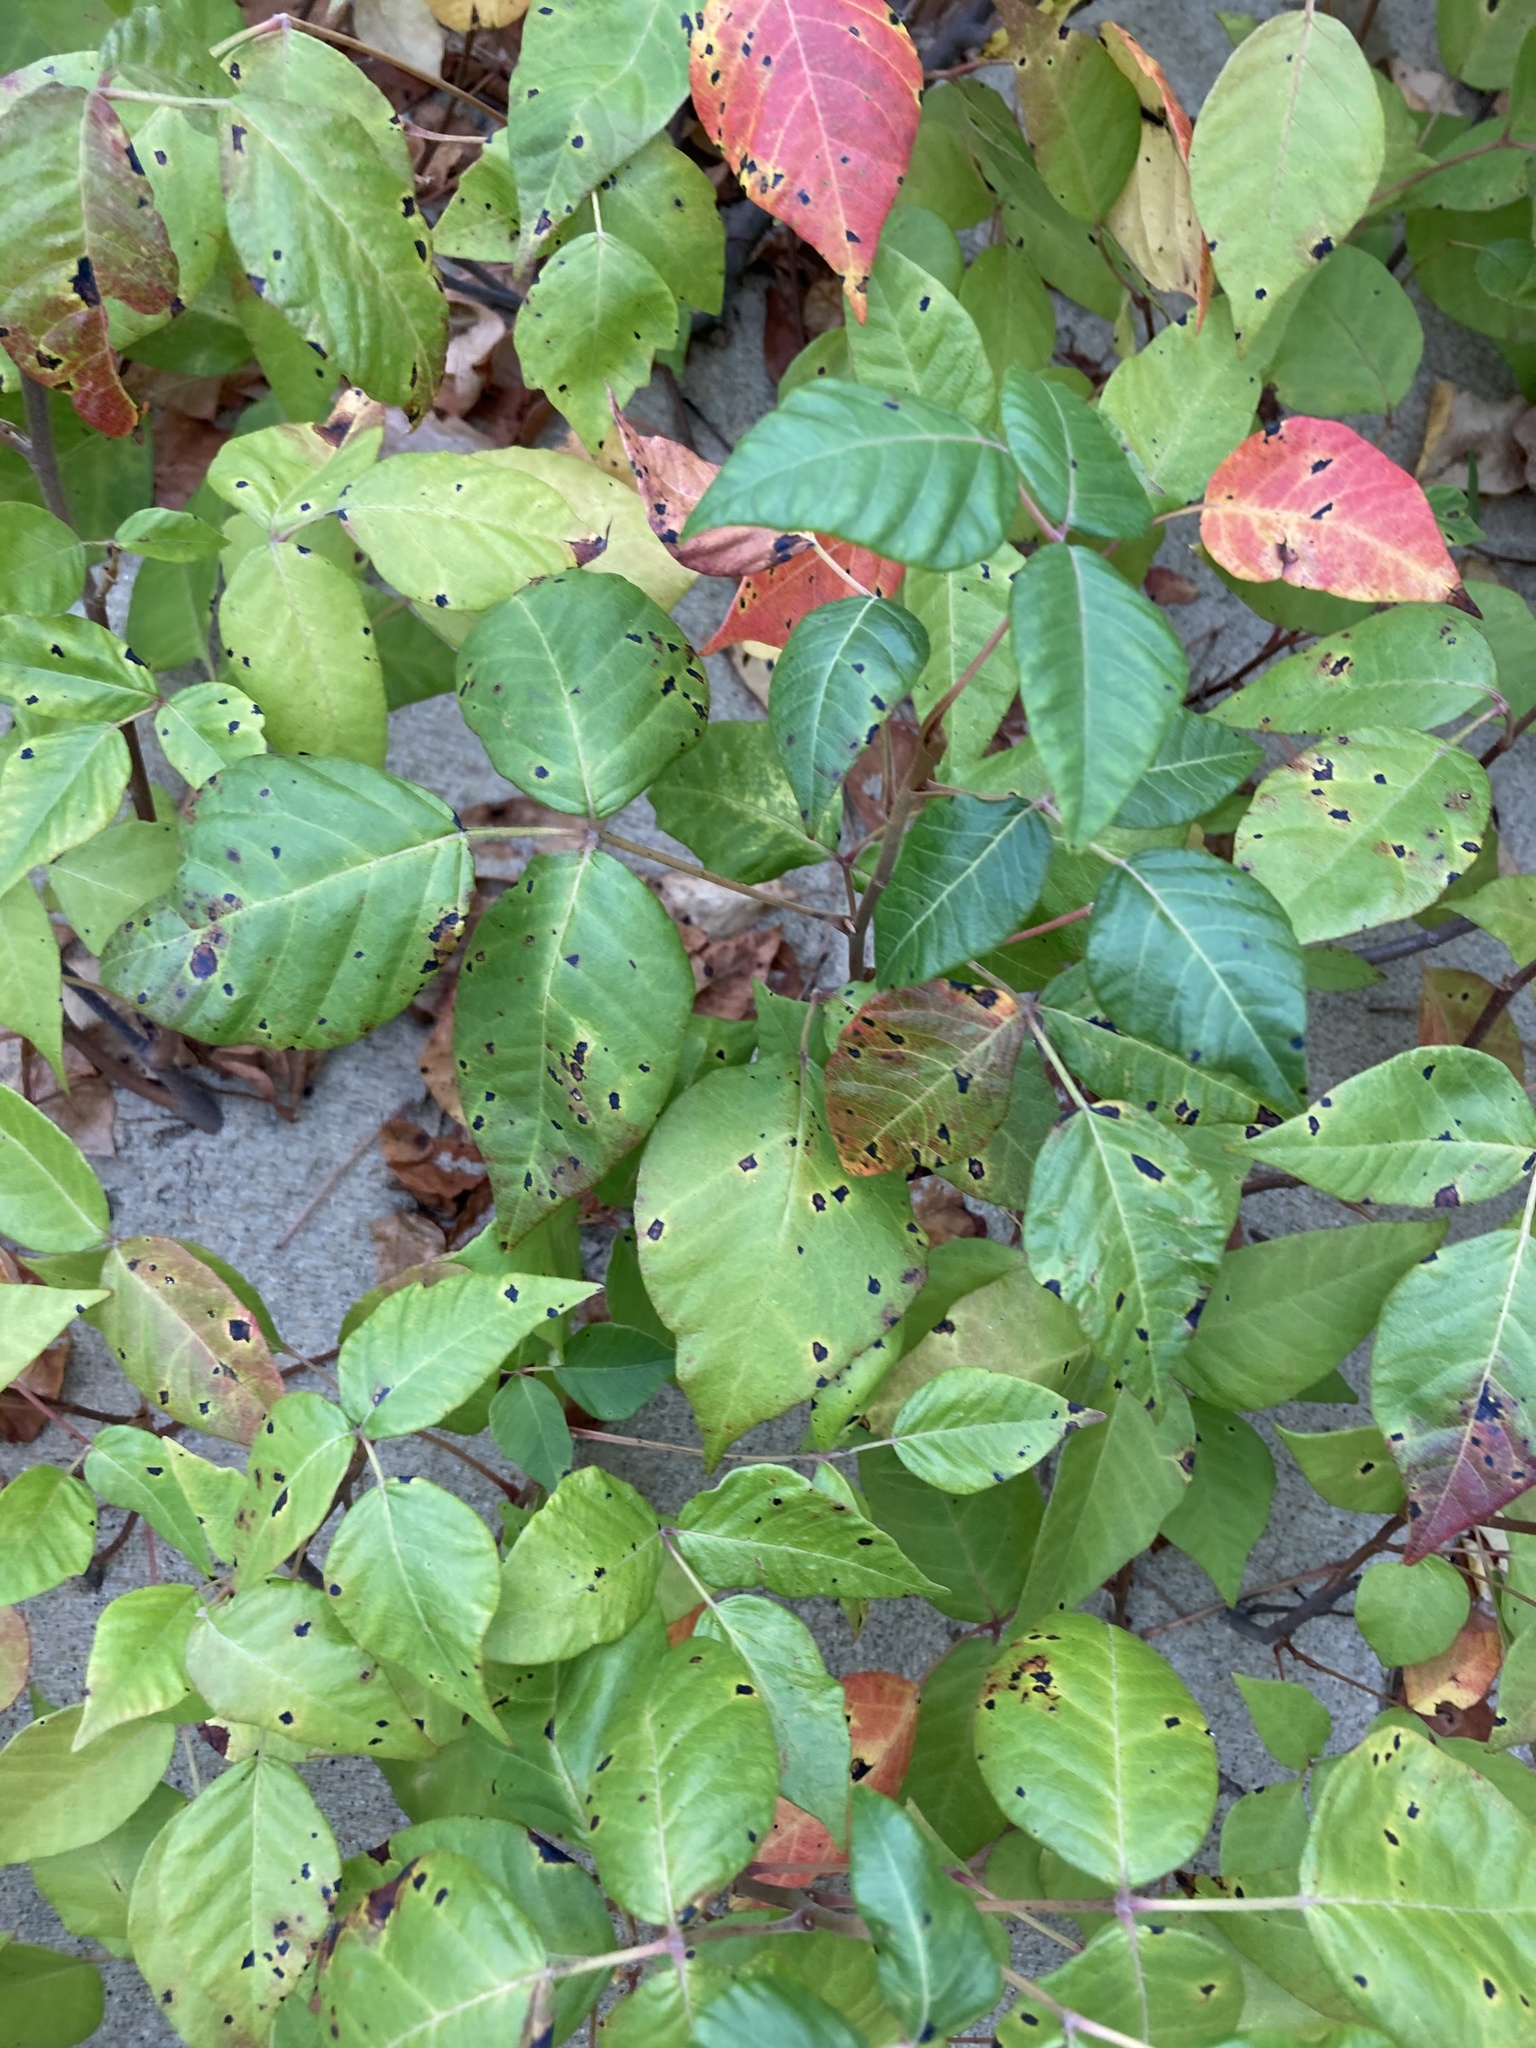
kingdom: Plantae
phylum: Tracheophyta
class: Magnoliopsida
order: Sapindales
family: Anacardiaceae
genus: Toxicodendron
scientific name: Toxicodendron radicans
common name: Poison ivy
